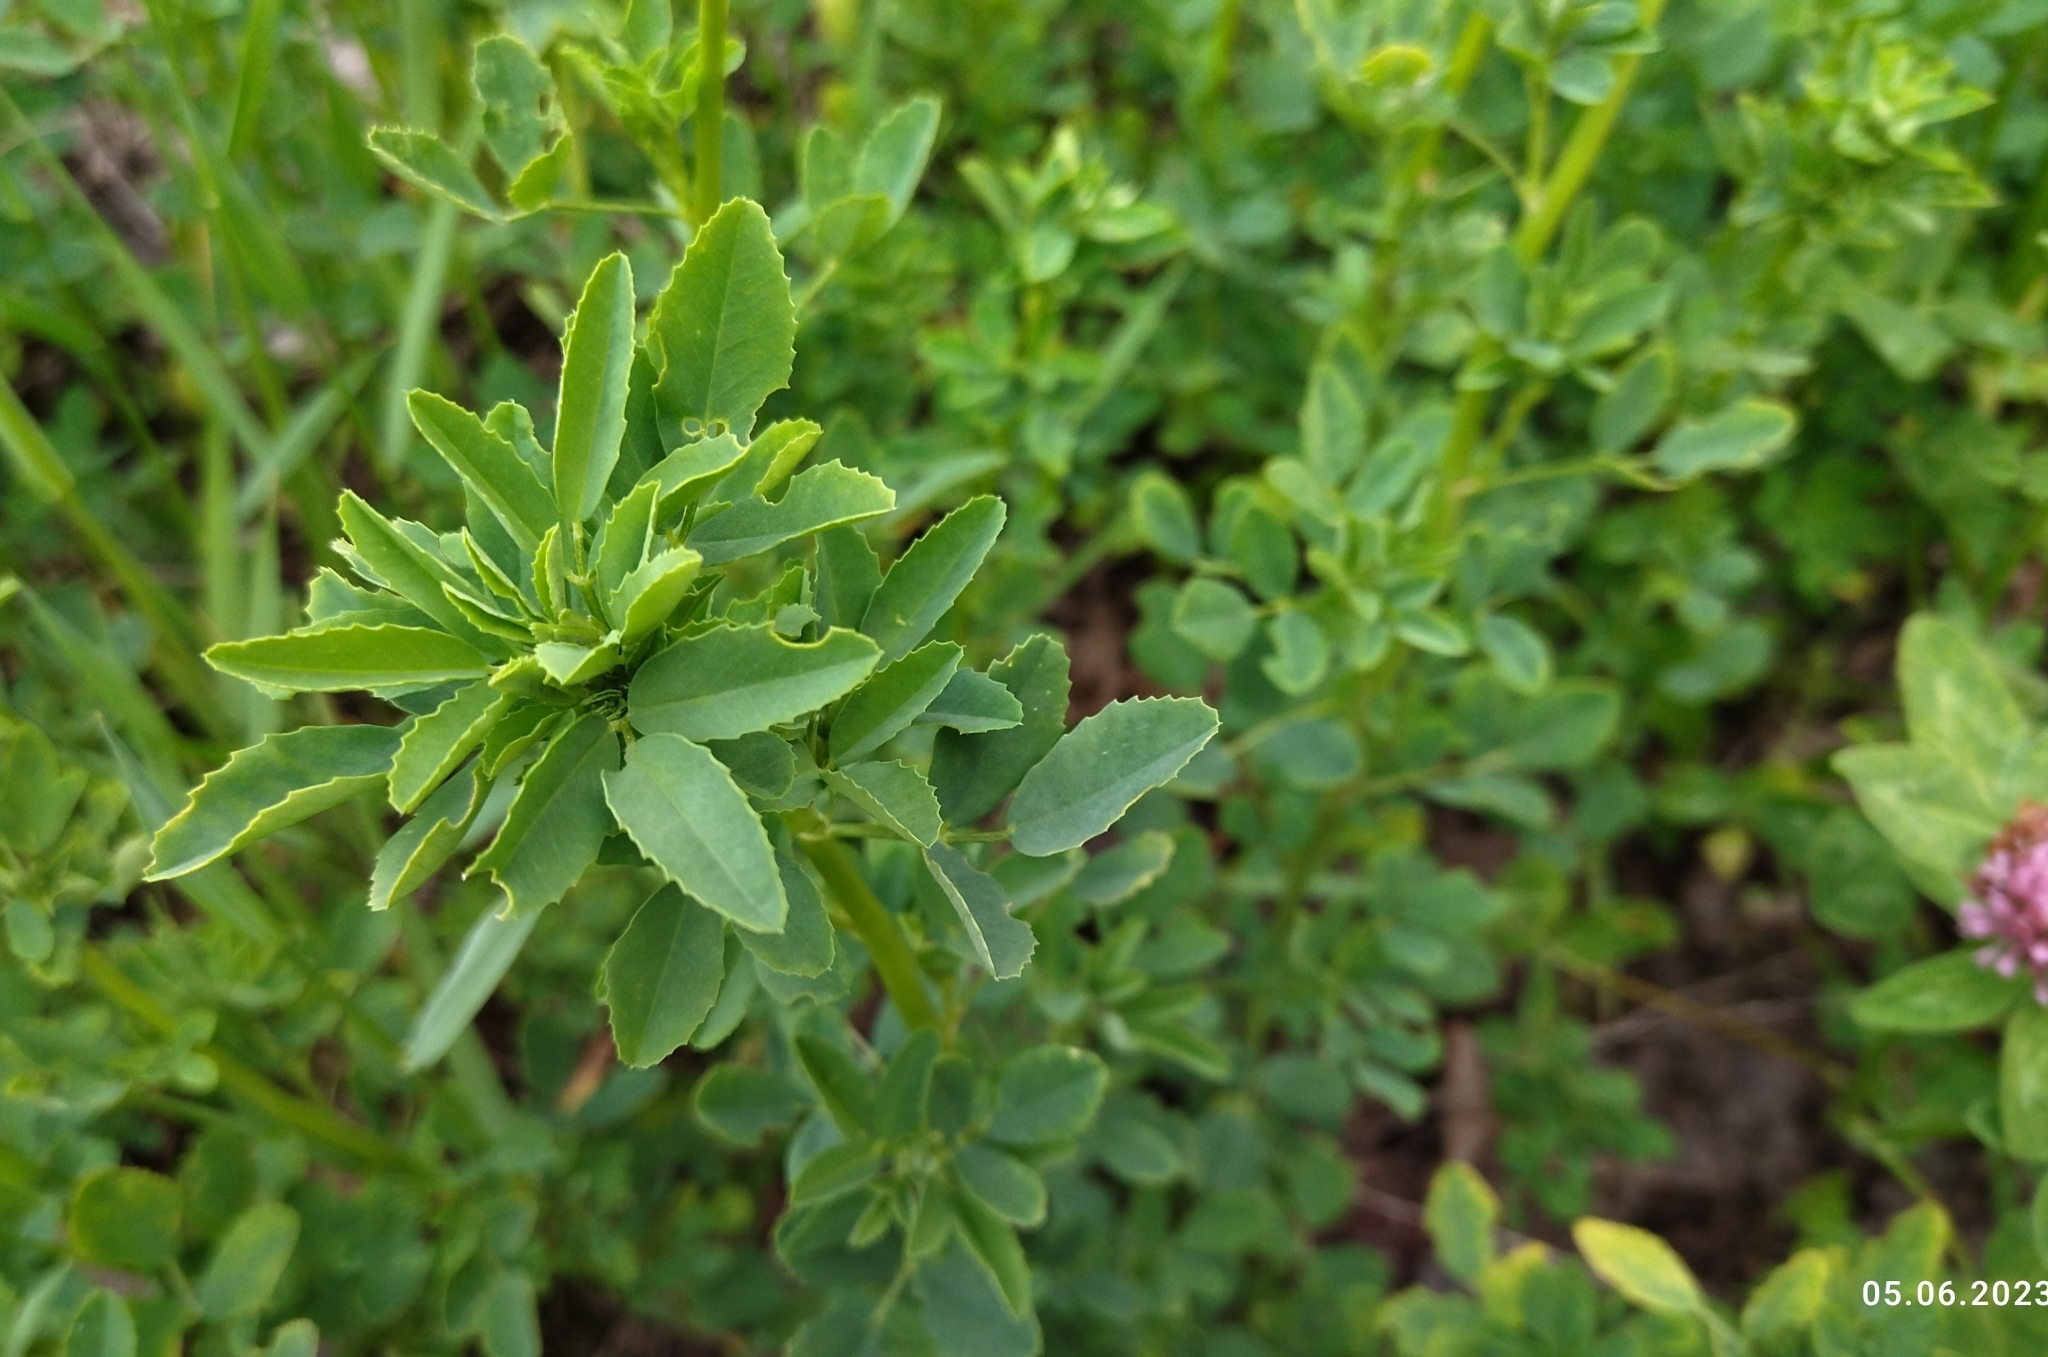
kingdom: Plantae
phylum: Tracheophyta
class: Magnoliopsida
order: Fabales
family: Fabaceae
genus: Melilotus
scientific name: Melilotus
